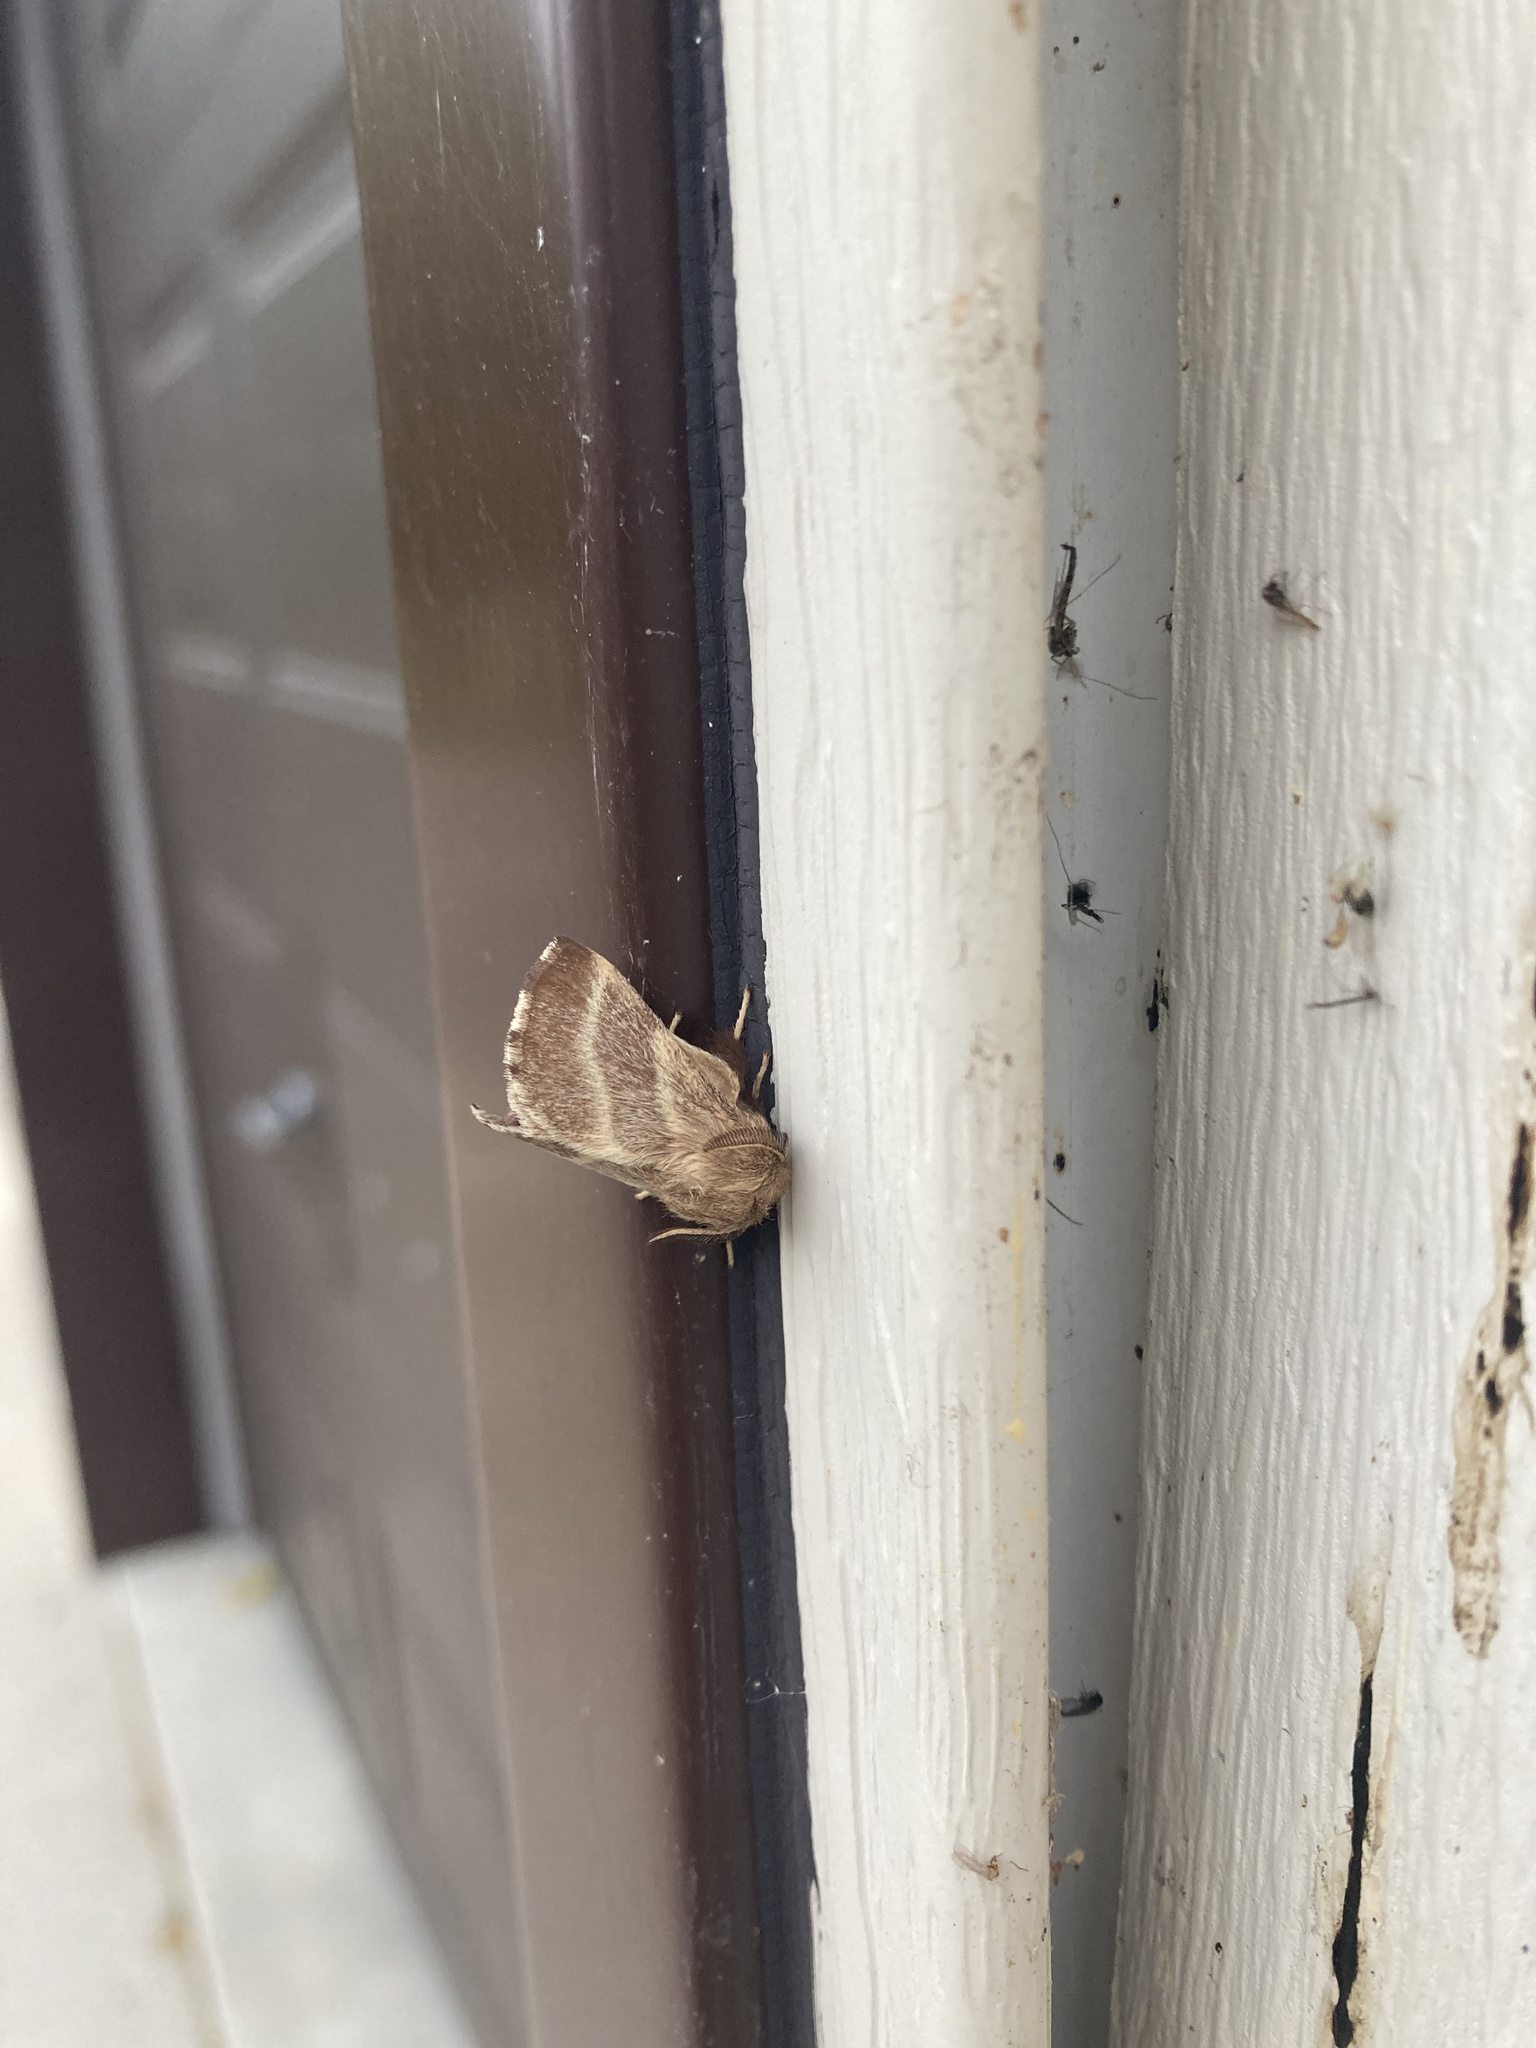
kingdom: Animalia
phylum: Arthropoda
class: Insecta
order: Lepidoptera
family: Lasiocampidae
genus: Malacosoma
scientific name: Malacosoma americana
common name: Eastern tent caterpillar moth
